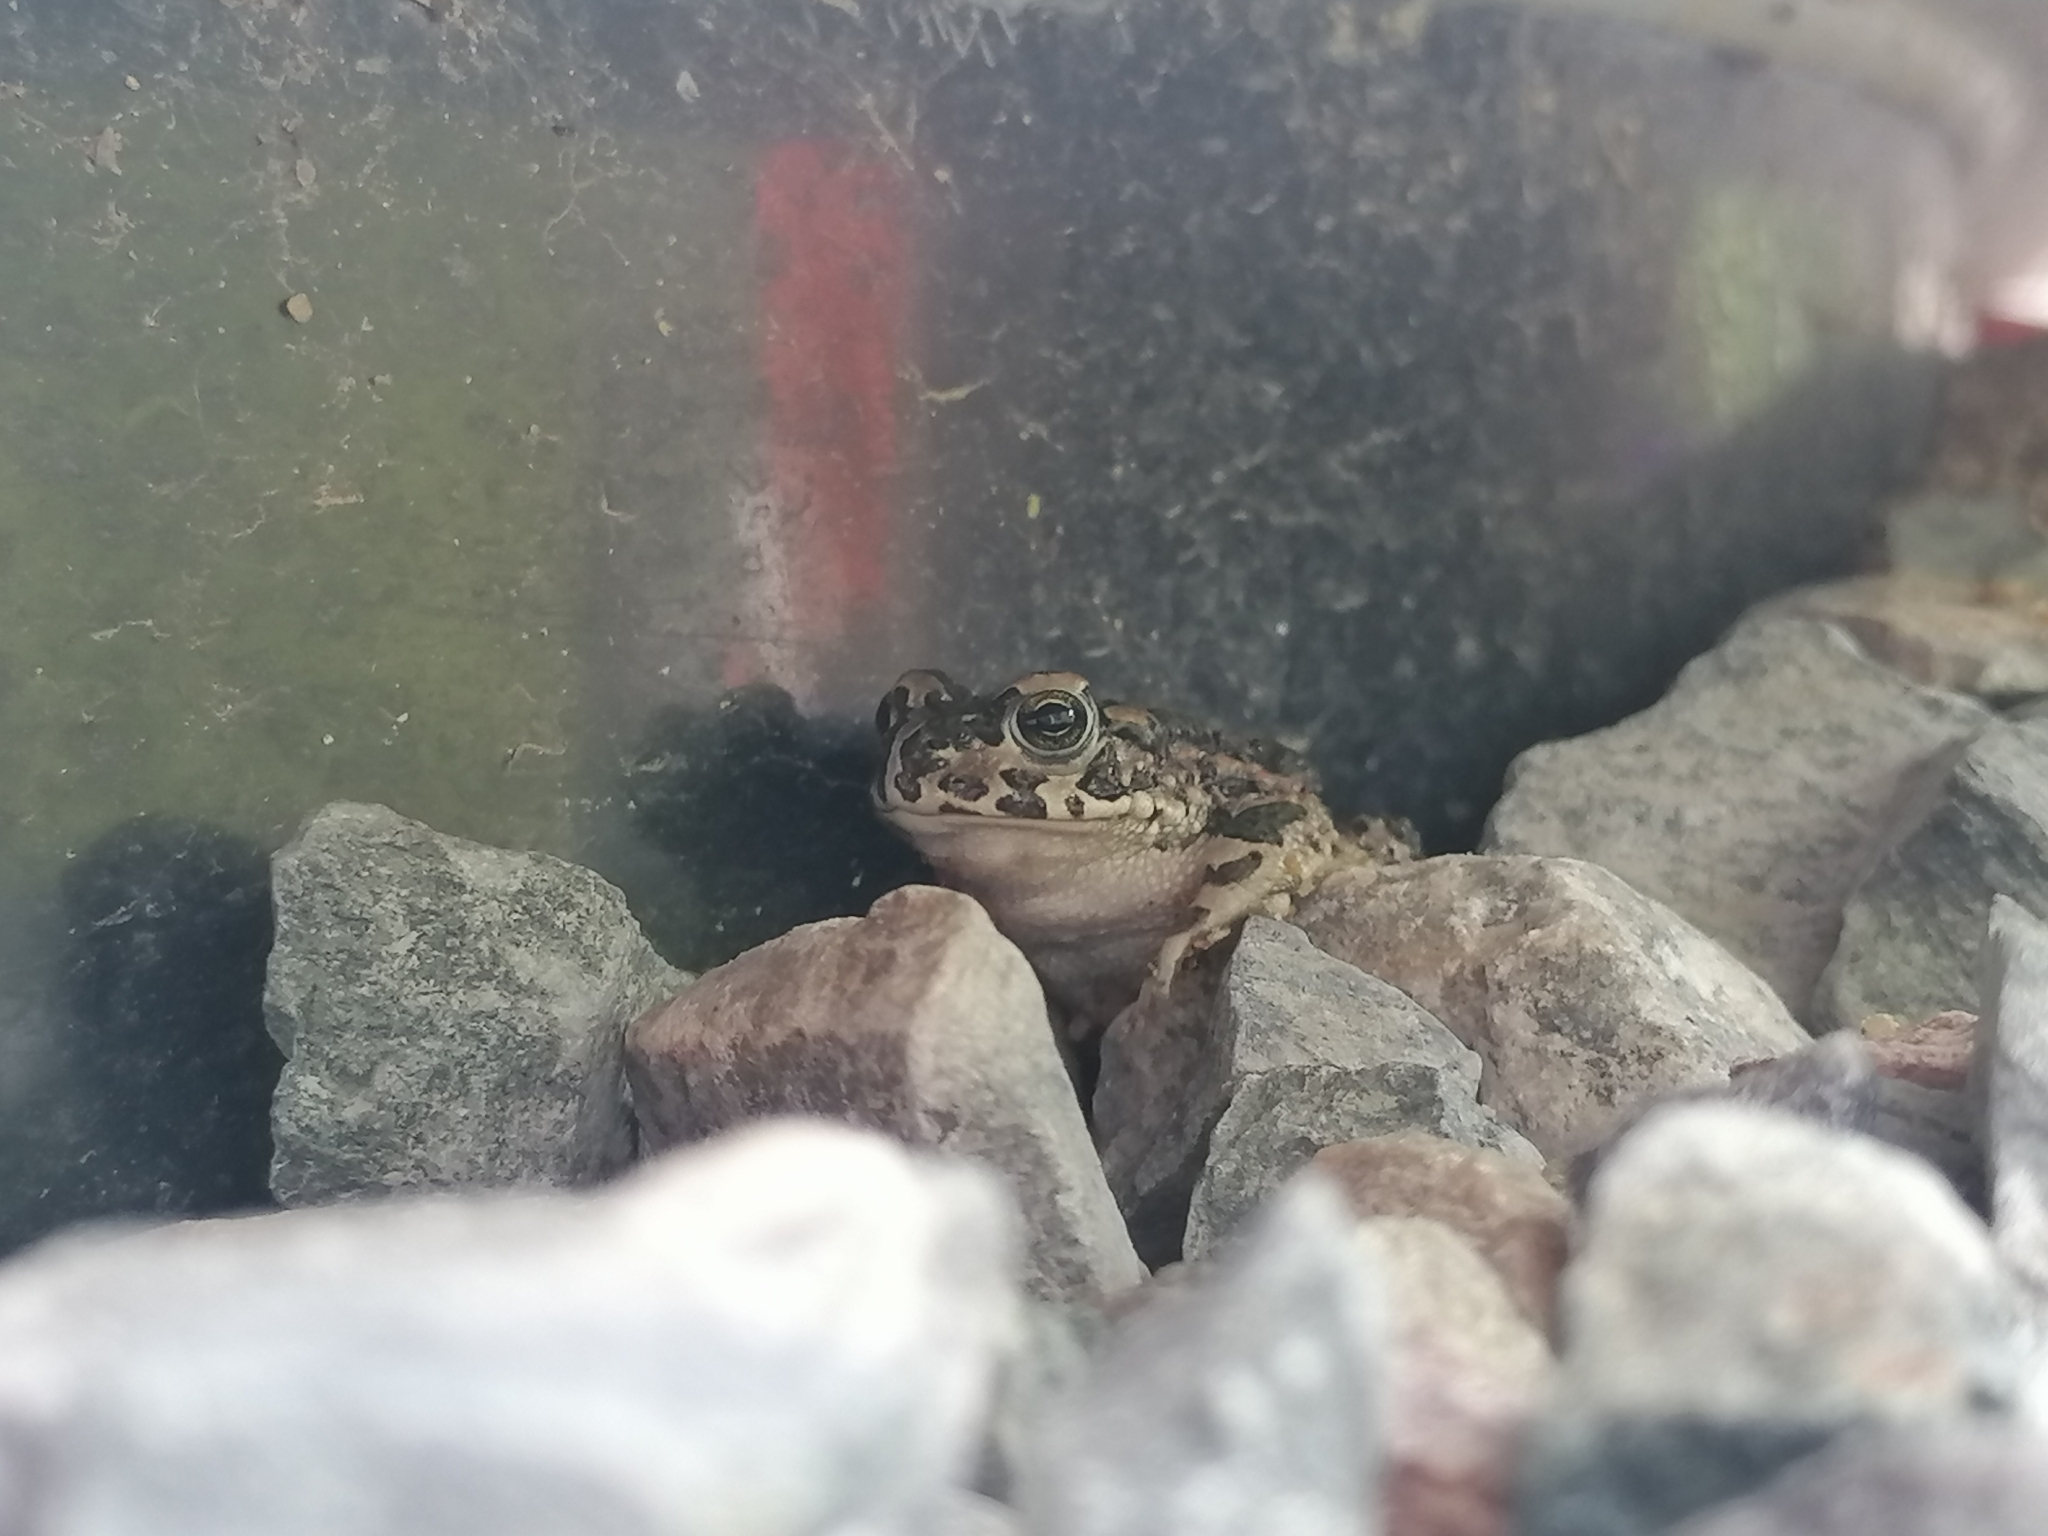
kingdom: Animalia
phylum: Chordata
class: Amphibia
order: Anura
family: Bufonidae
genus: Bufotes
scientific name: Bufotes viridis
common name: European green toad
